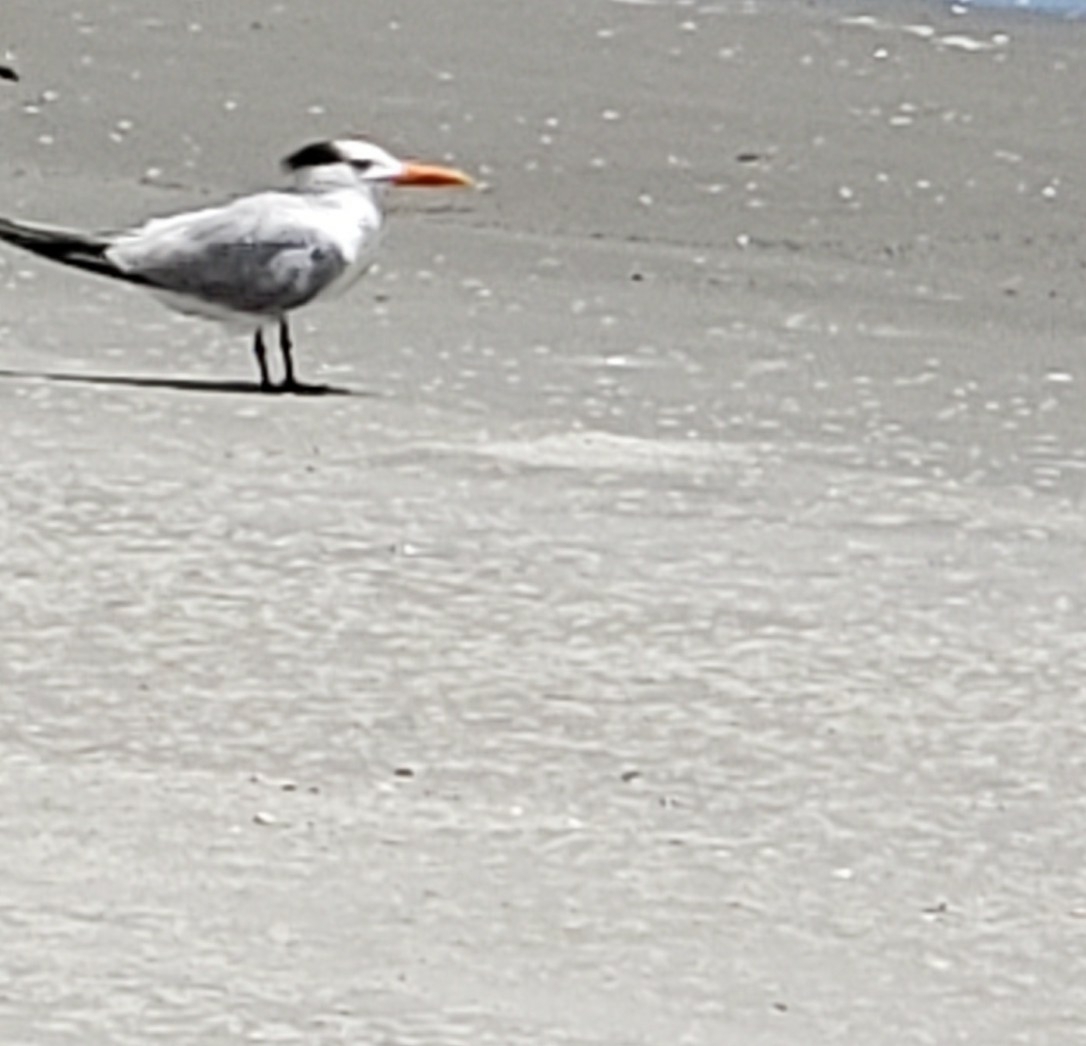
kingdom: Animalia
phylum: Chordata
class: Aves
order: Charadriiformes
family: Laridae
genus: Thalasseus
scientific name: Thalasseus maximus
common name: Royal tern
